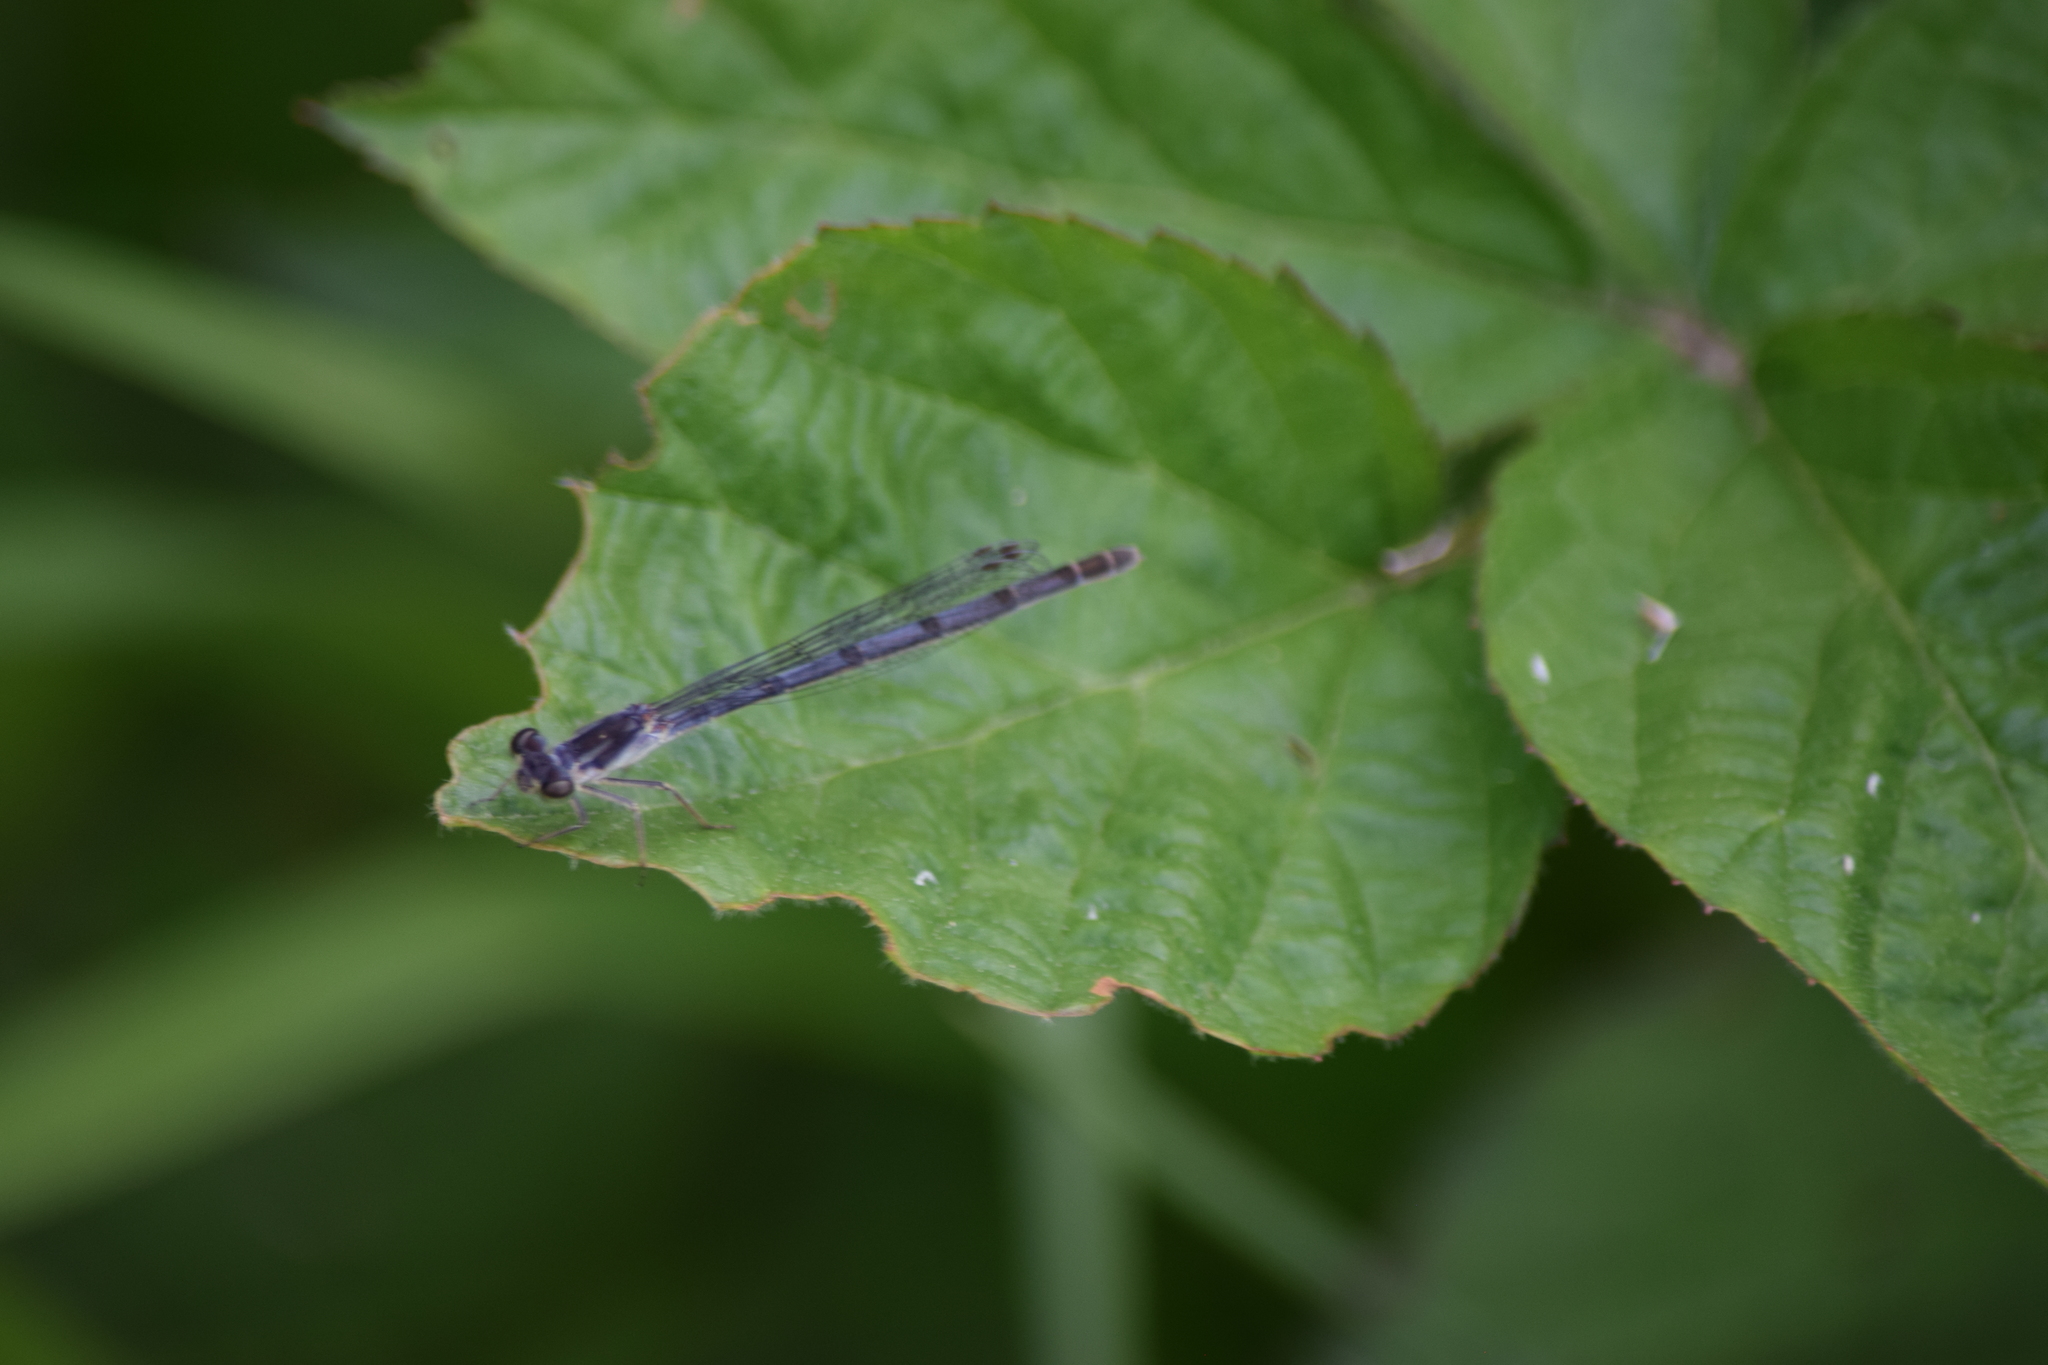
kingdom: Animalia
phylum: Arthropoda
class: Insecta
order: Odonata
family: Coenagrionidae
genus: Ischnura
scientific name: Ischnura posita
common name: Fragile forktail
